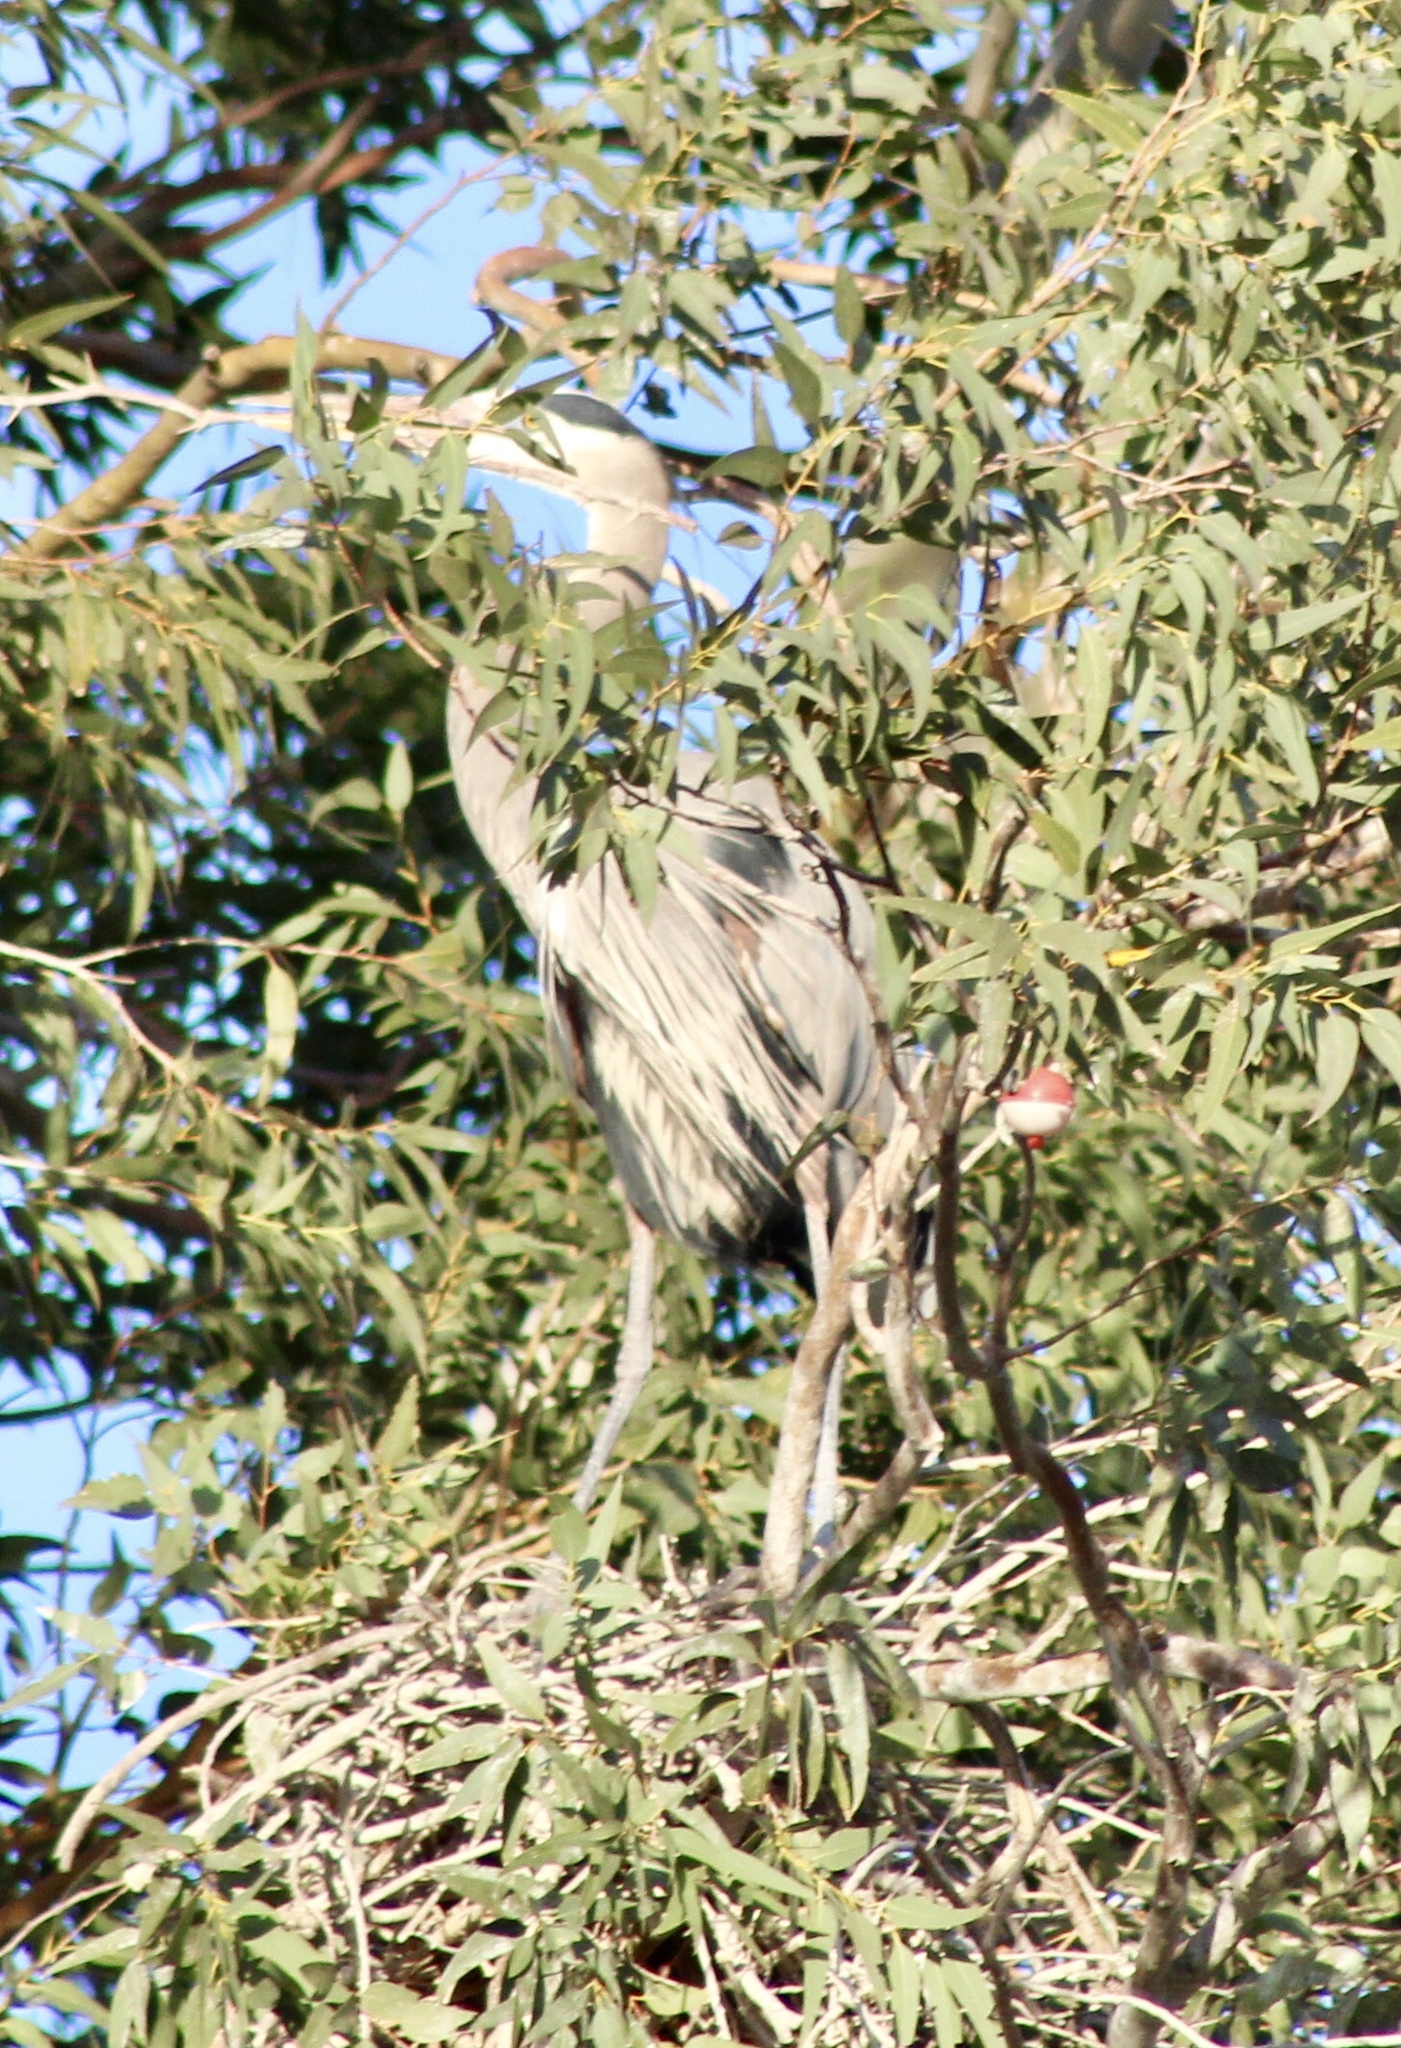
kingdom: Animalia
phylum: Chordata
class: Aves
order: Pelecaniformes
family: Ardeidae
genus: Ardea
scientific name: Ardea herodias
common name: Great blue heron
